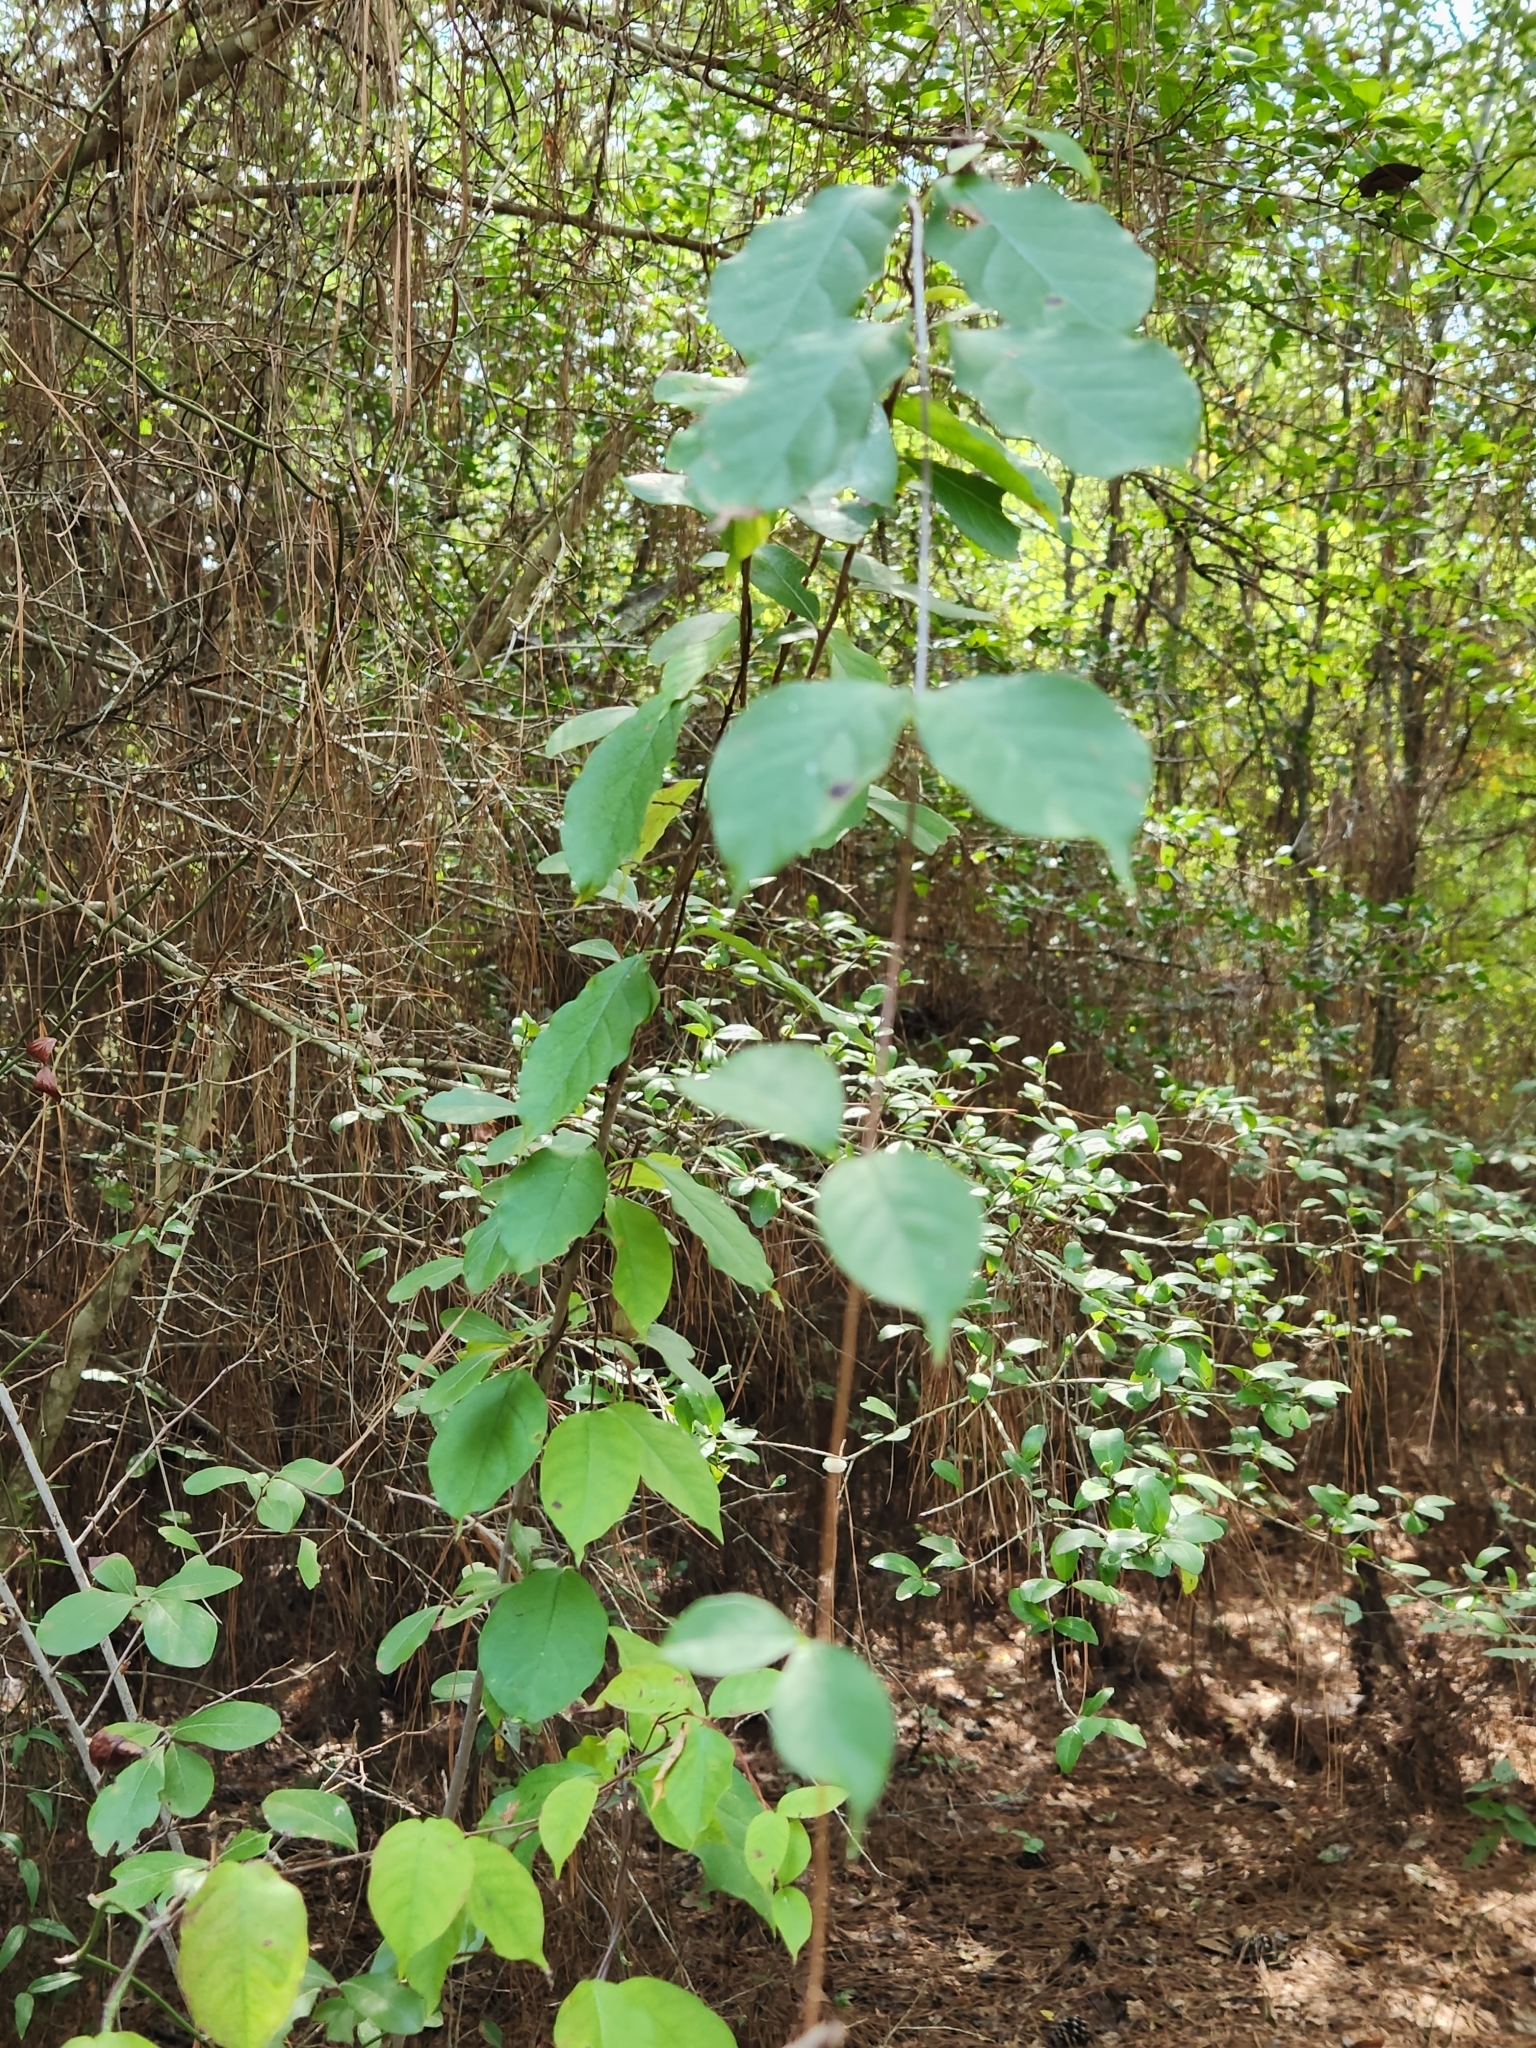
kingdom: Plantae
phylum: Tracheophyta
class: Magnoliopsida
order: Gentianales
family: Apocynaceae
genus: Thyrsanthella
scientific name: Thyrsanthella difformis
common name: Climbing dogbane
